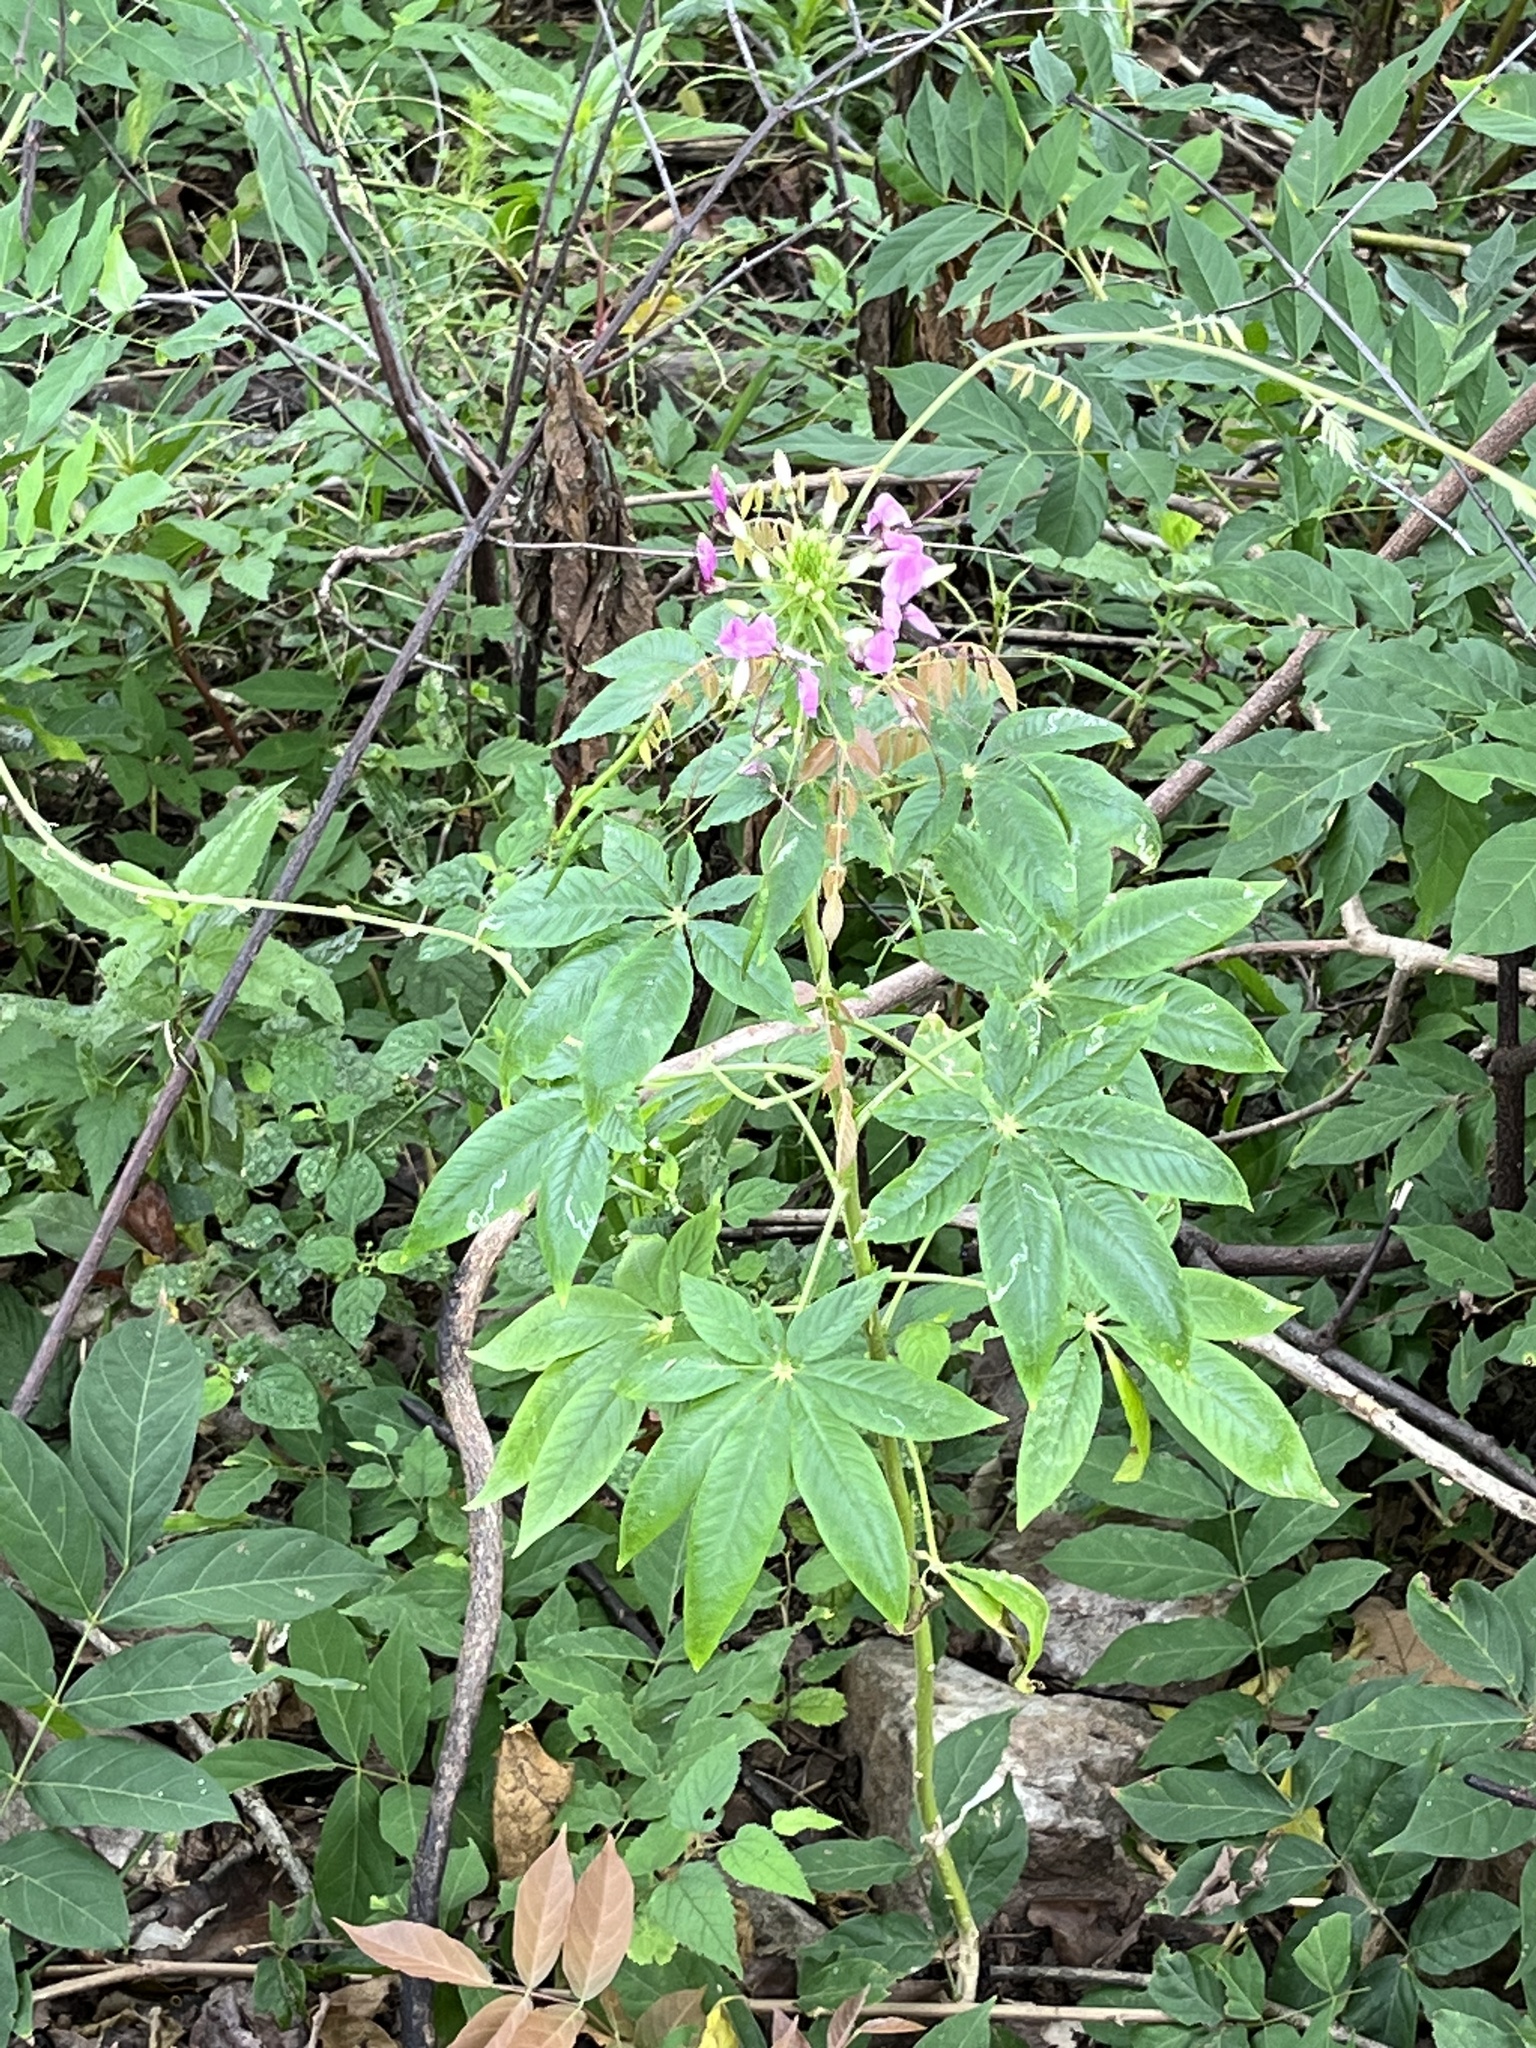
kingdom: Plantae
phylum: Tracheophyta
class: Magnoliopsida
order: Brassicales
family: Cleomaceae
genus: Tarenaya
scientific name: Tarenaya houtteana
